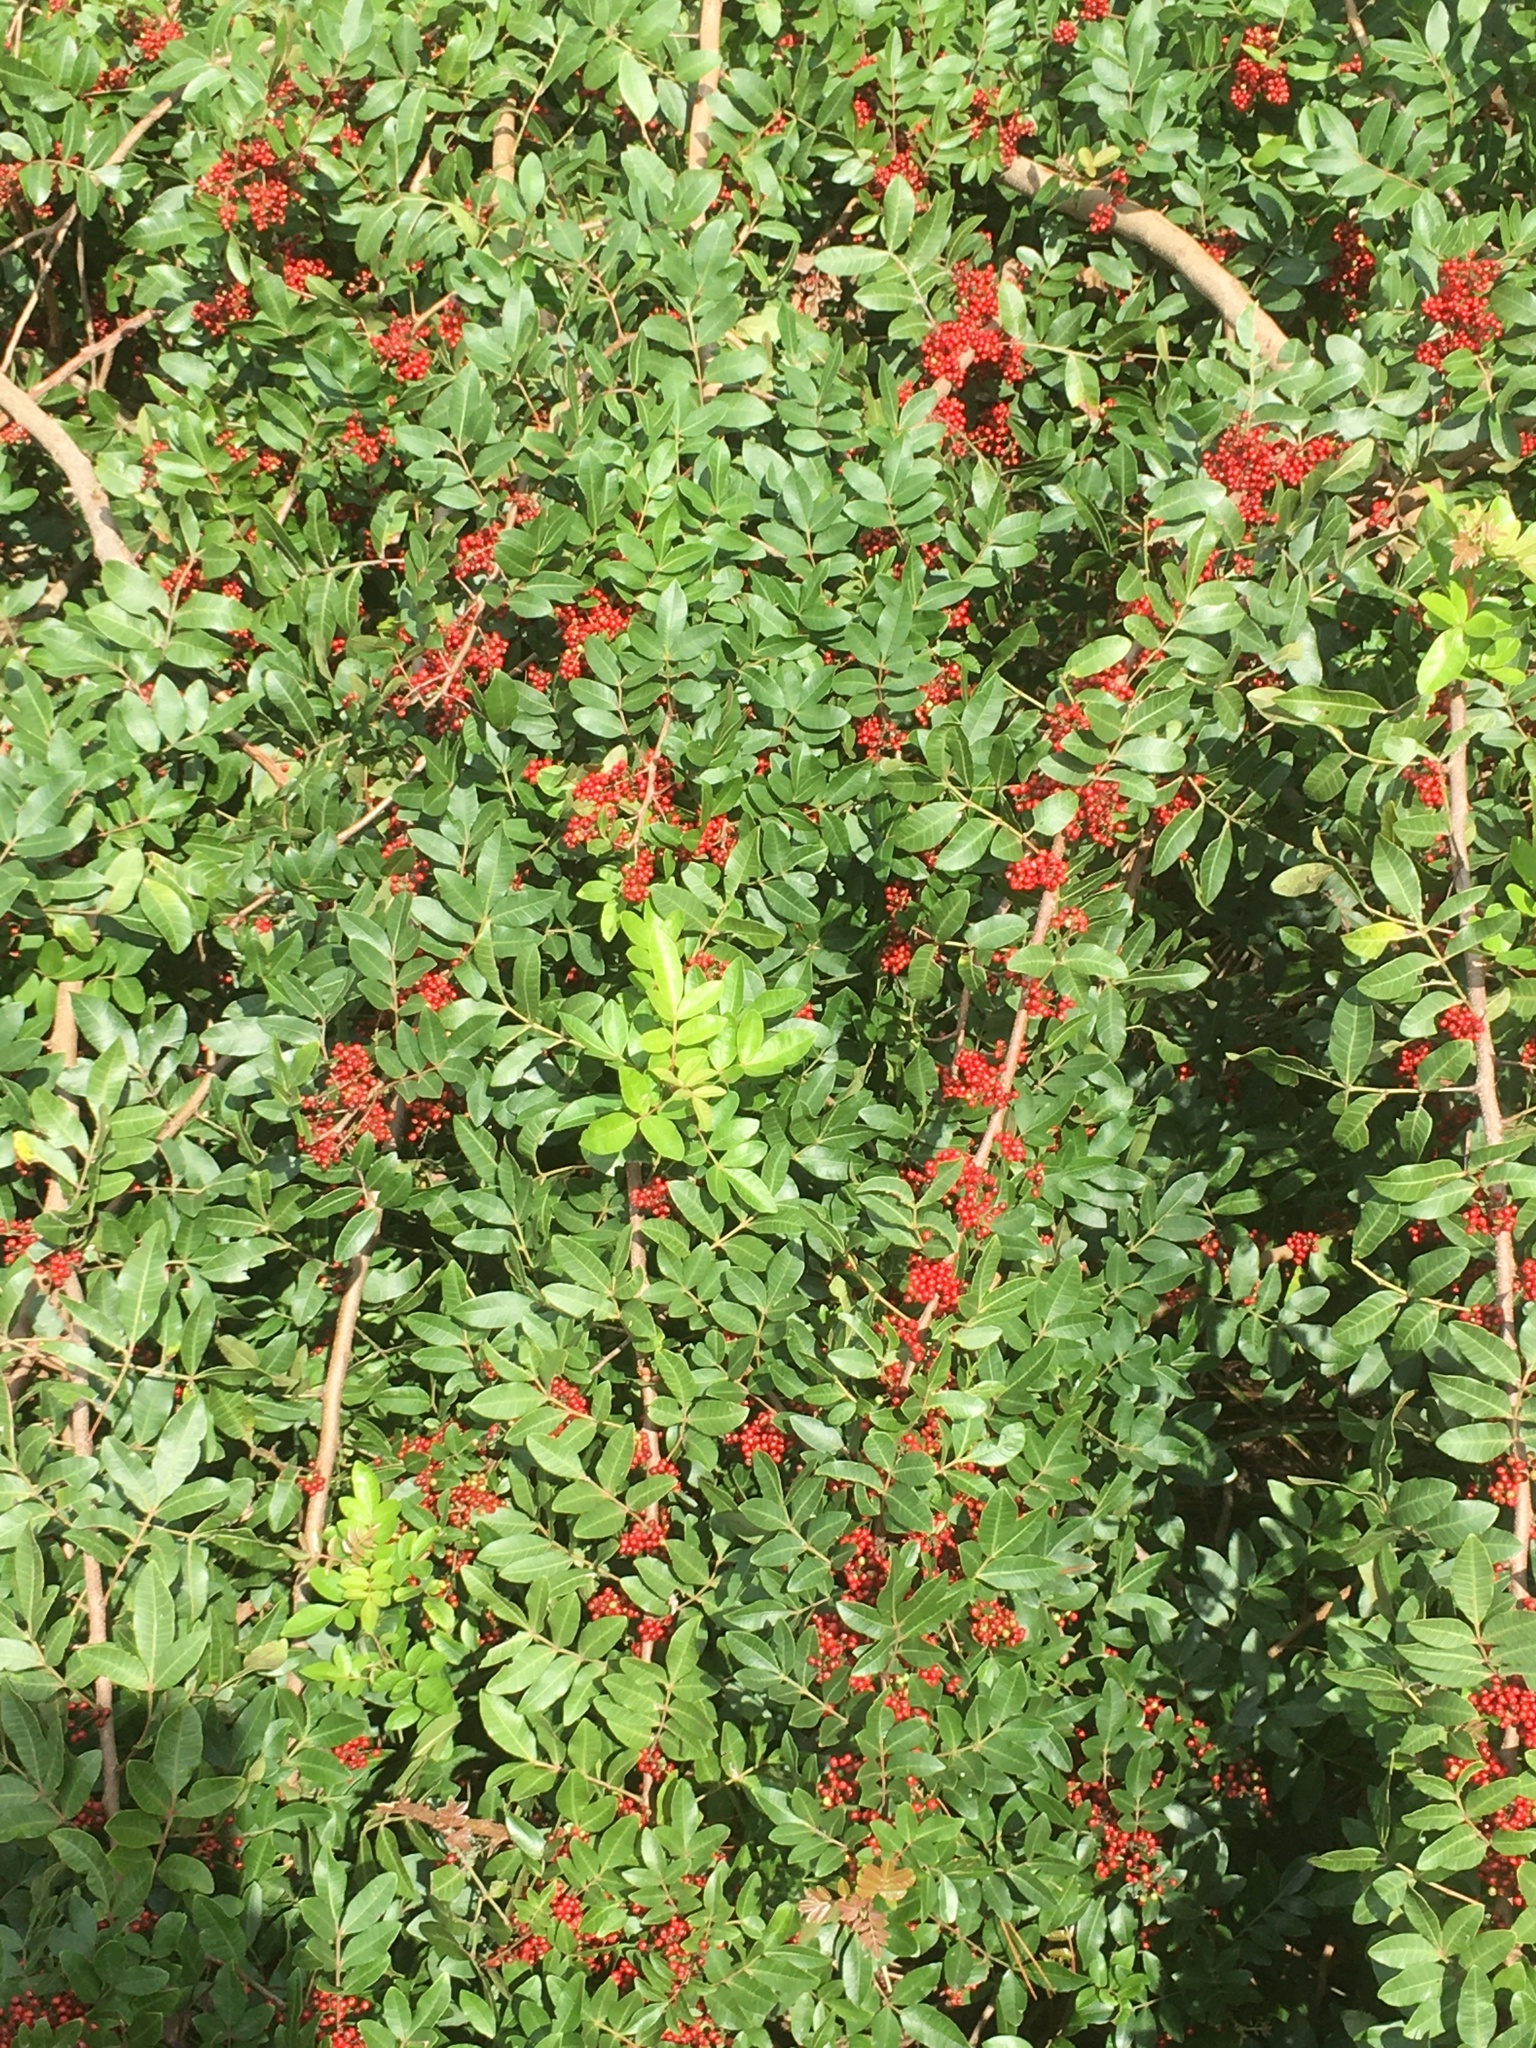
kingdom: Plantae
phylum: Tracheophyta
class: Magnoliopsida
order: Sapindales
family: Anacardiaceae
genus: Schinus
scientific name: Schinus terebinthifolia
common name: Brazilian peppertree
